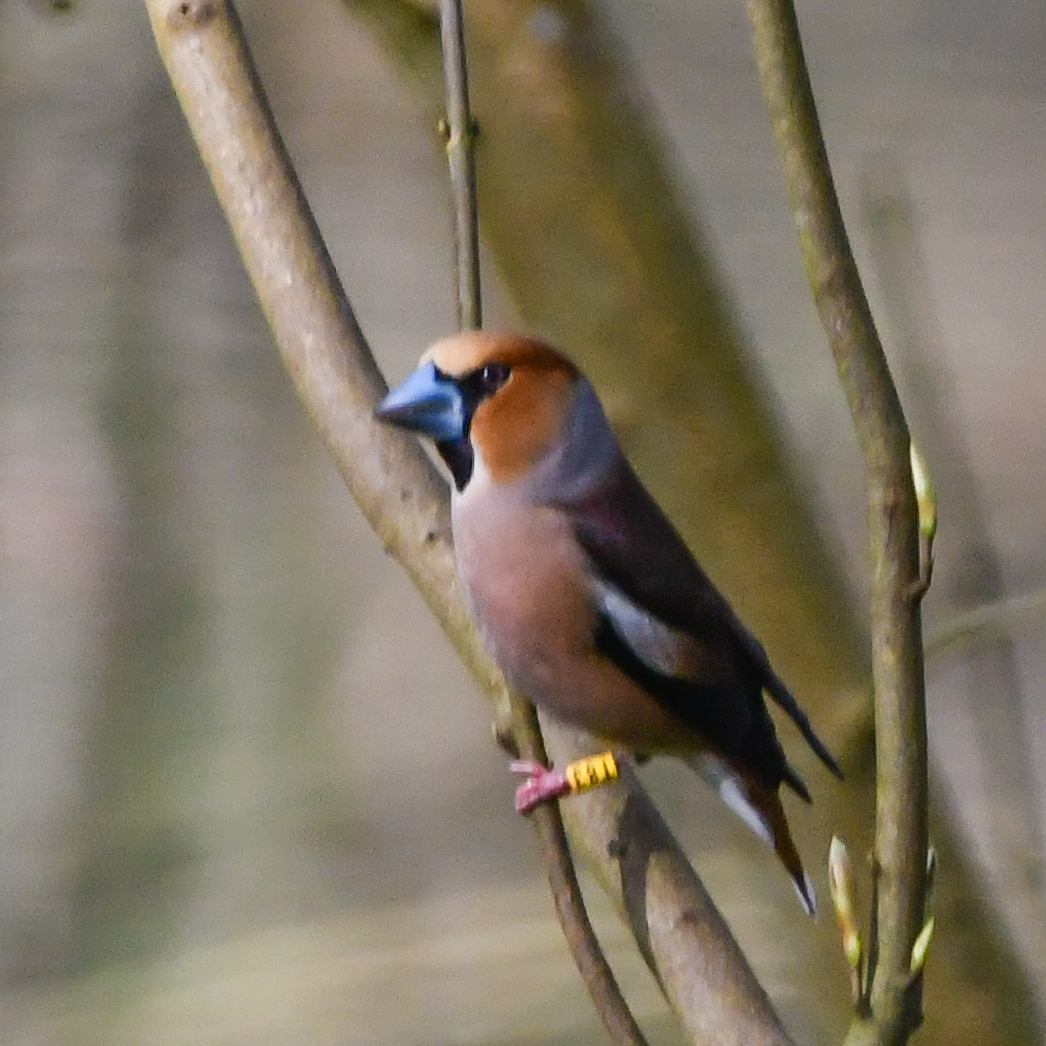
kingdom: Animalia
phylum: Chordata
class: Aves
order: Passeriformes
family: Fringillidae
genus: Coccothraustes
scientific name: Coccothraustes coccothraustes
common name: Hawfinch
